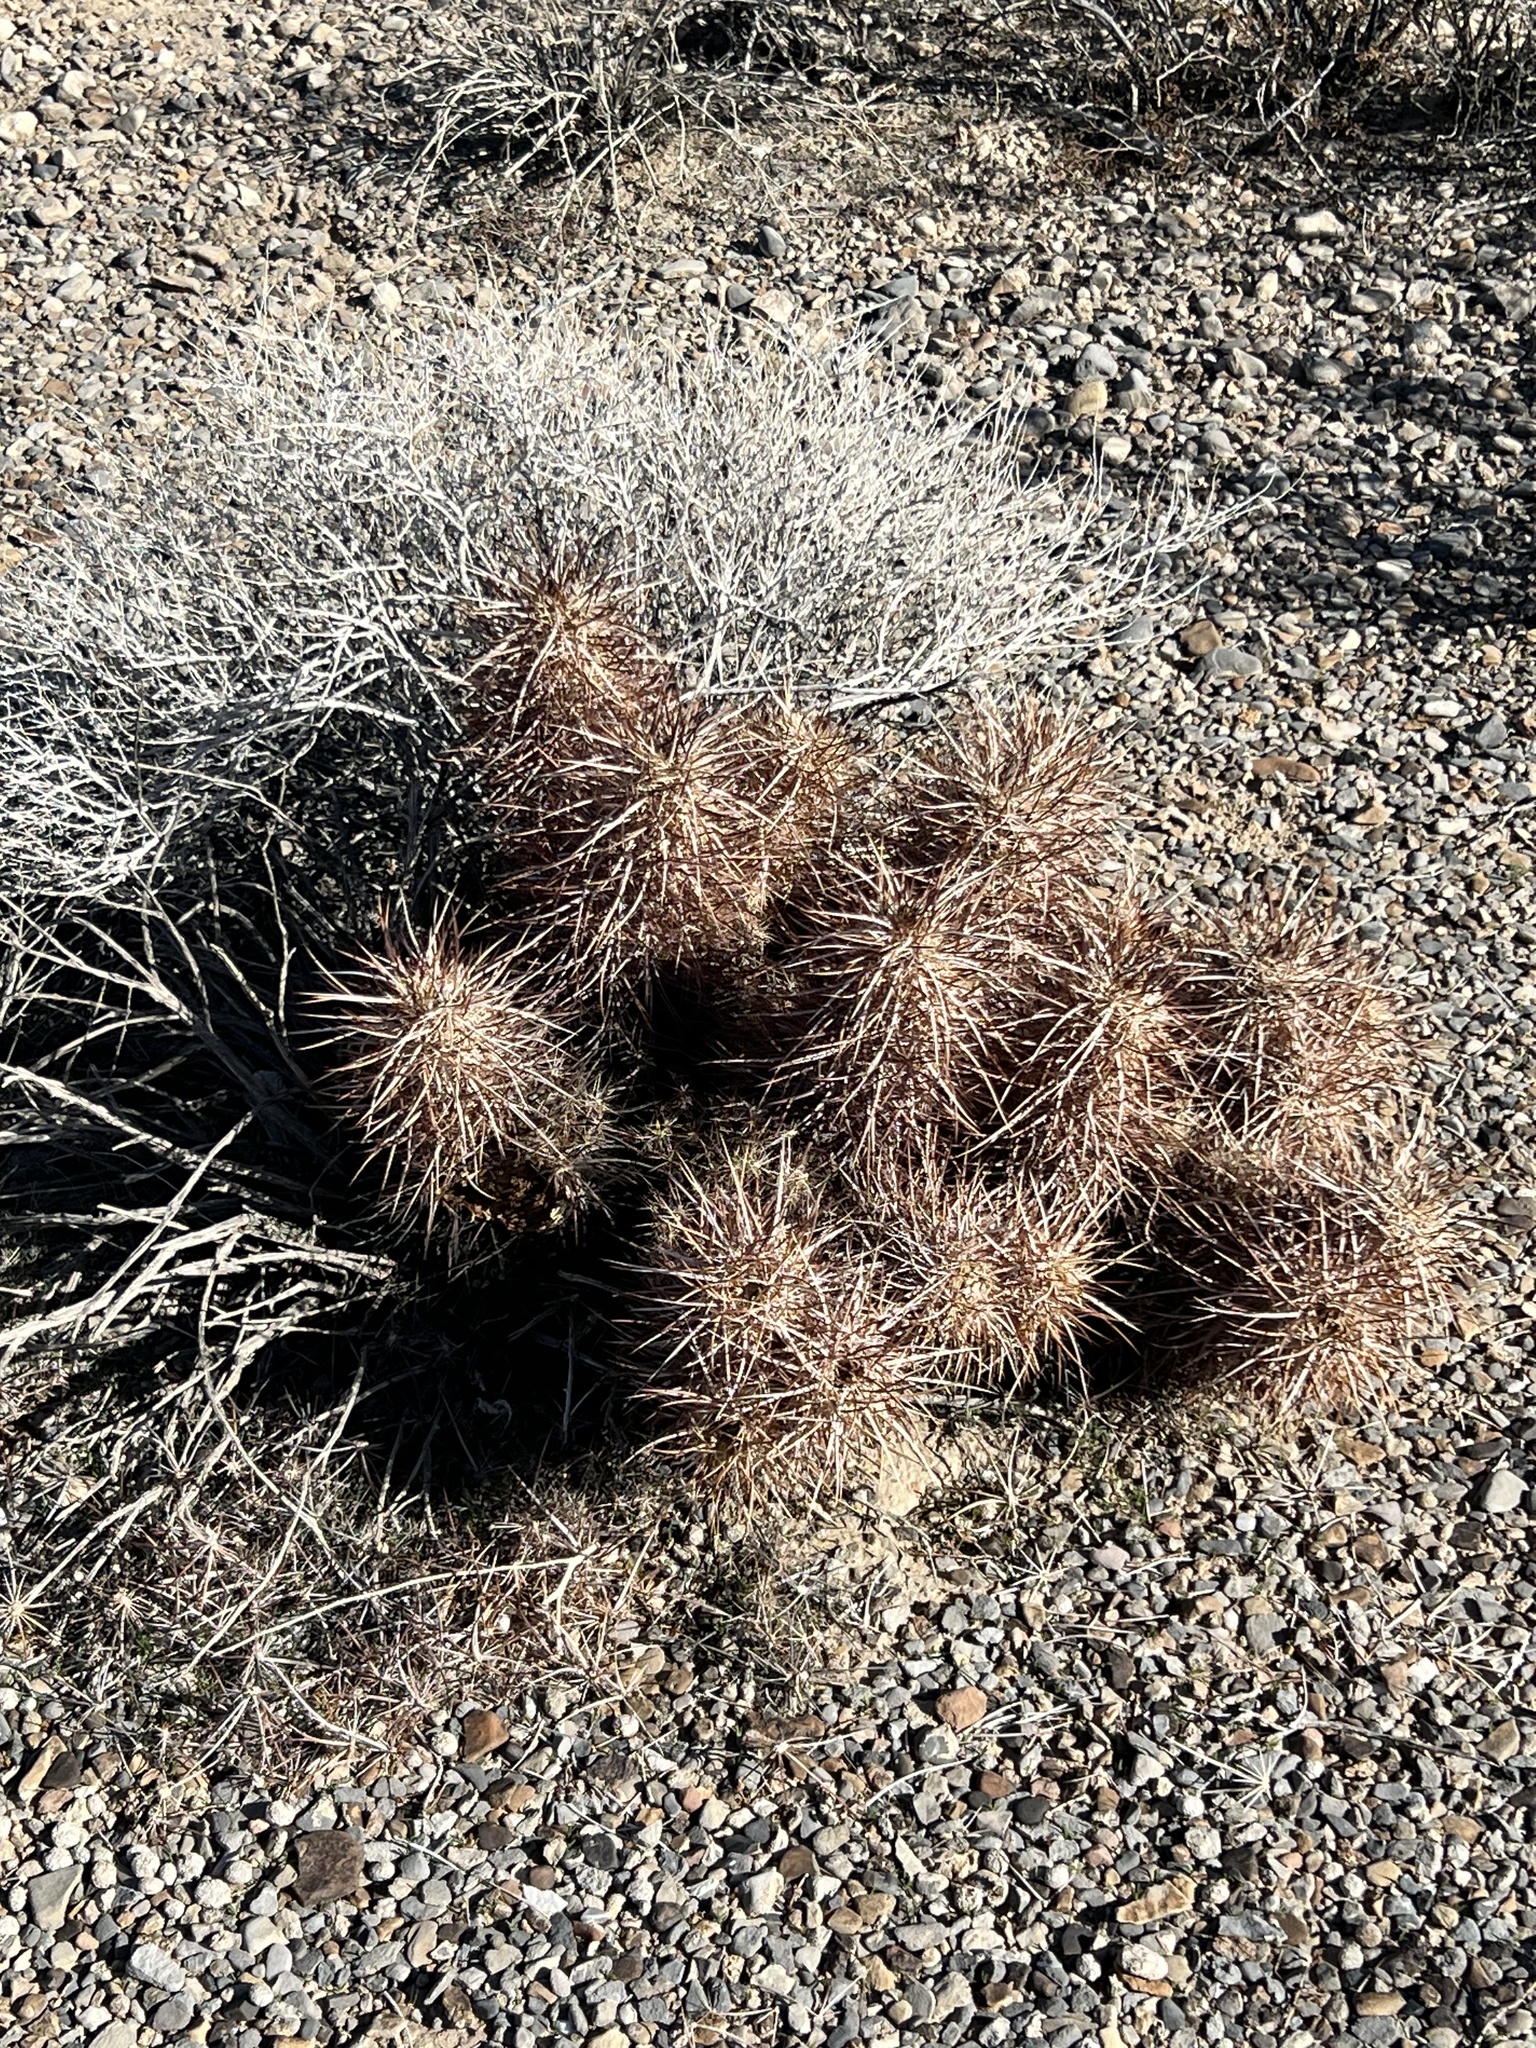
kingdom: Plantae
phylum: Tracheophyta
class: Magnoliopsida
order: Caryophyllales
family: Cactaceae
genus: Echinocereus
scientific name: Echinocereus engelmannii
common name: Engelmann's hedgehog cactus
